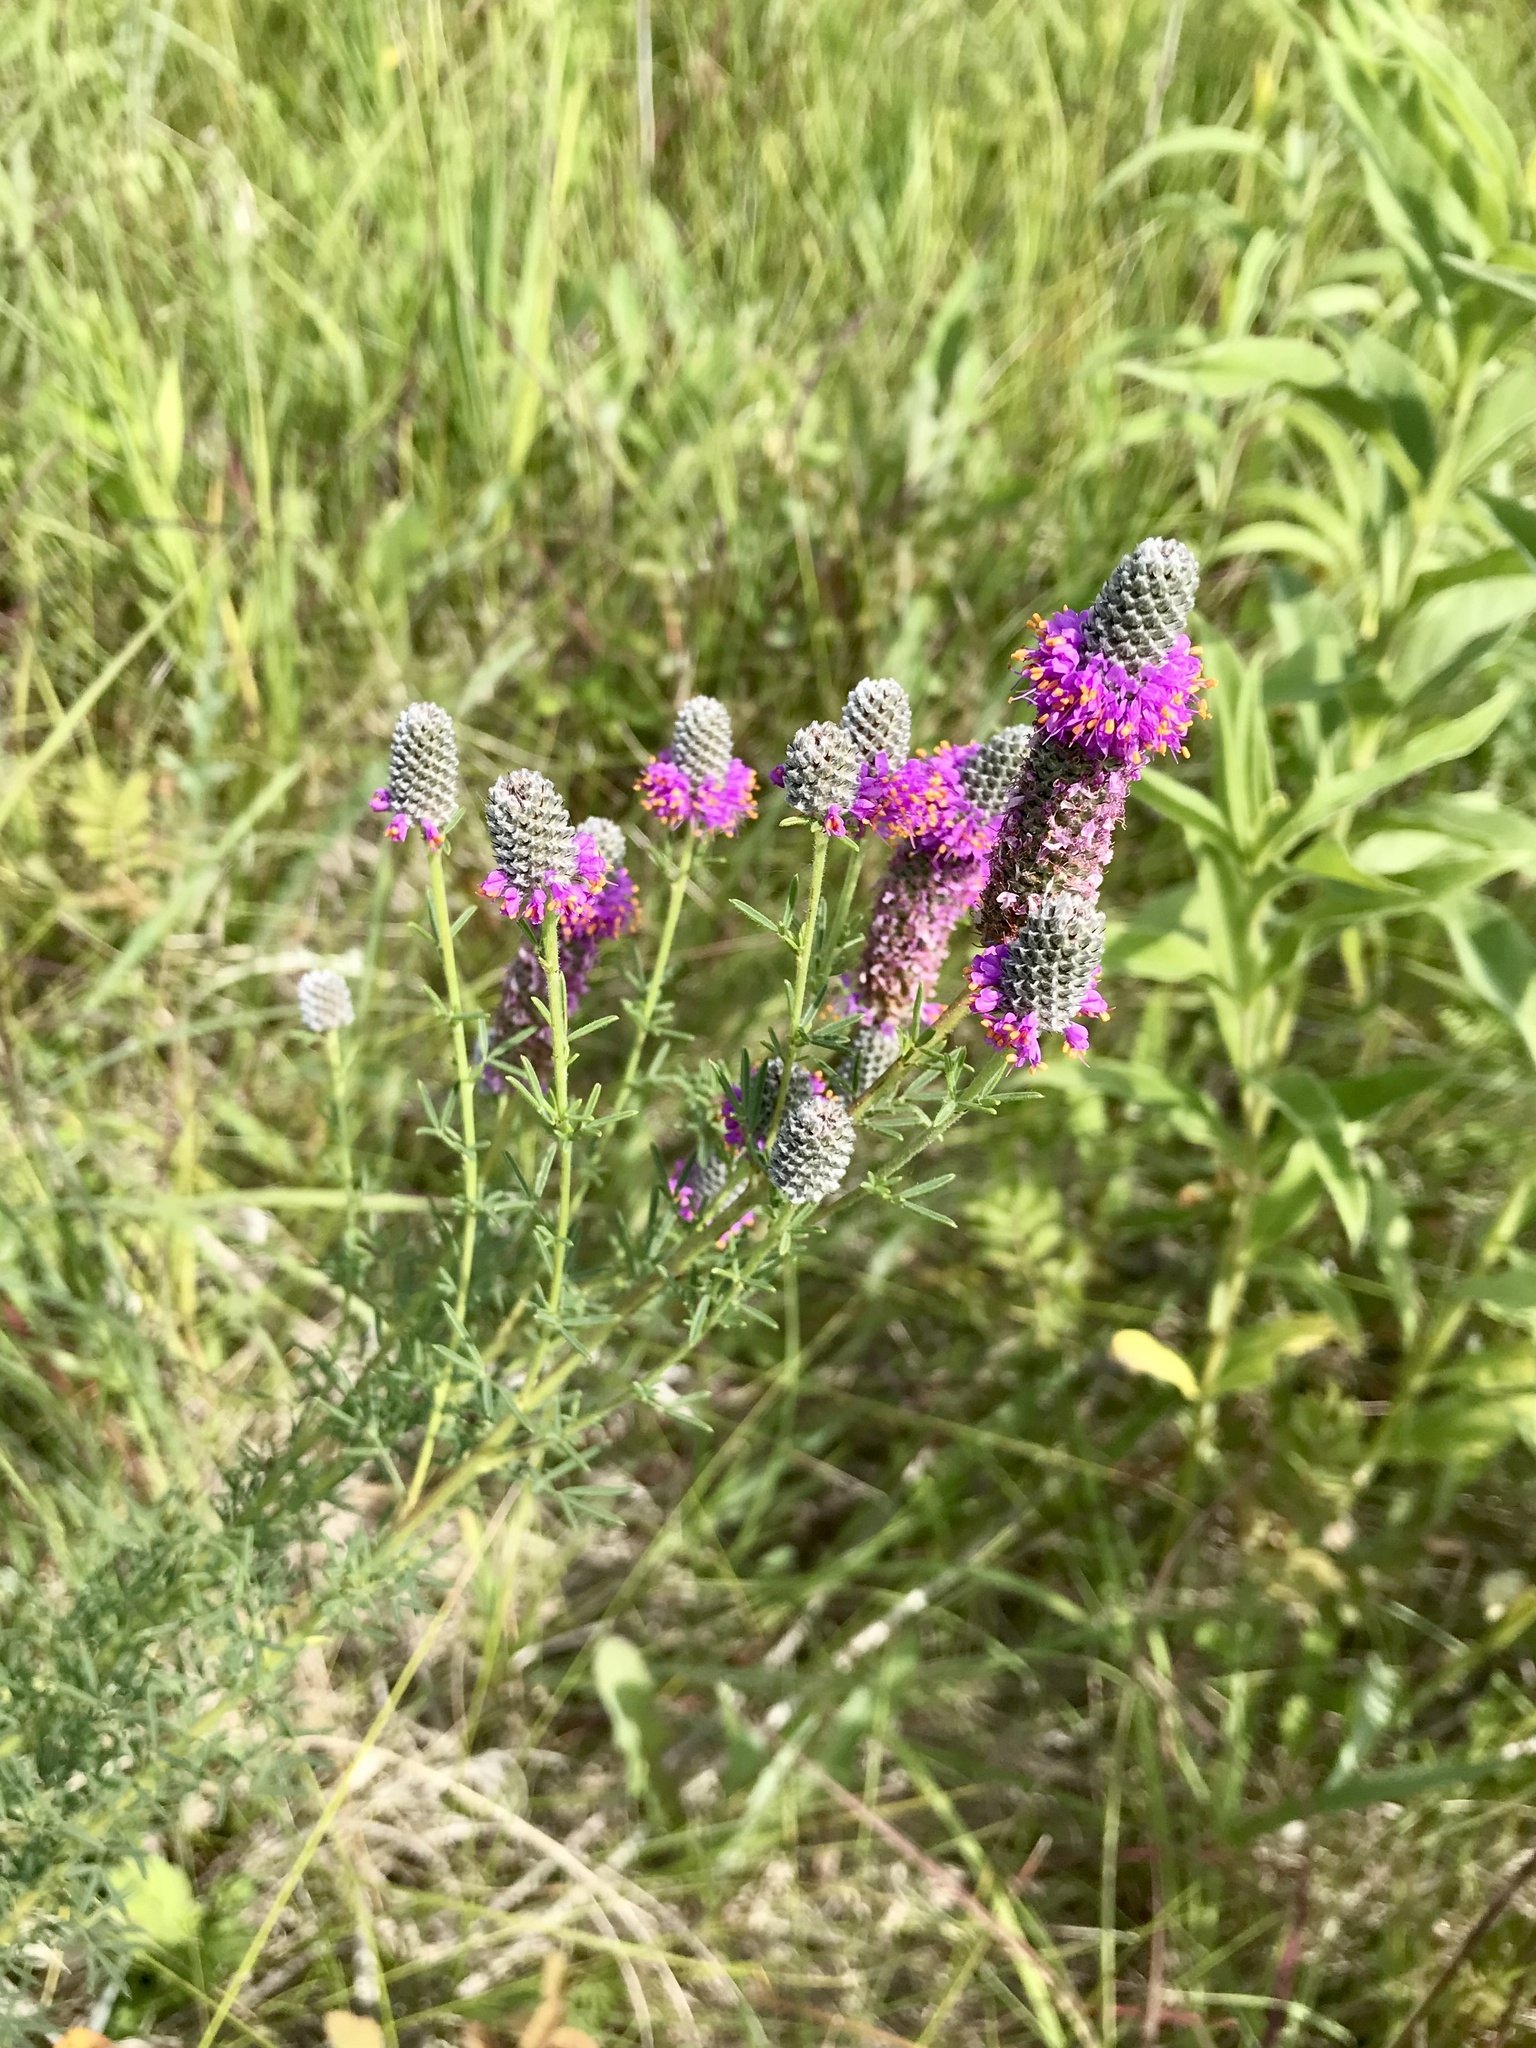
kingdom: Plantae
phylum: Tracheophyta
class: Magnoliopsida
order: Fabales
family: Fabaceae
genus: Dalea
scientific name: Dalea purpurea
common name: Purple prairie-clover
